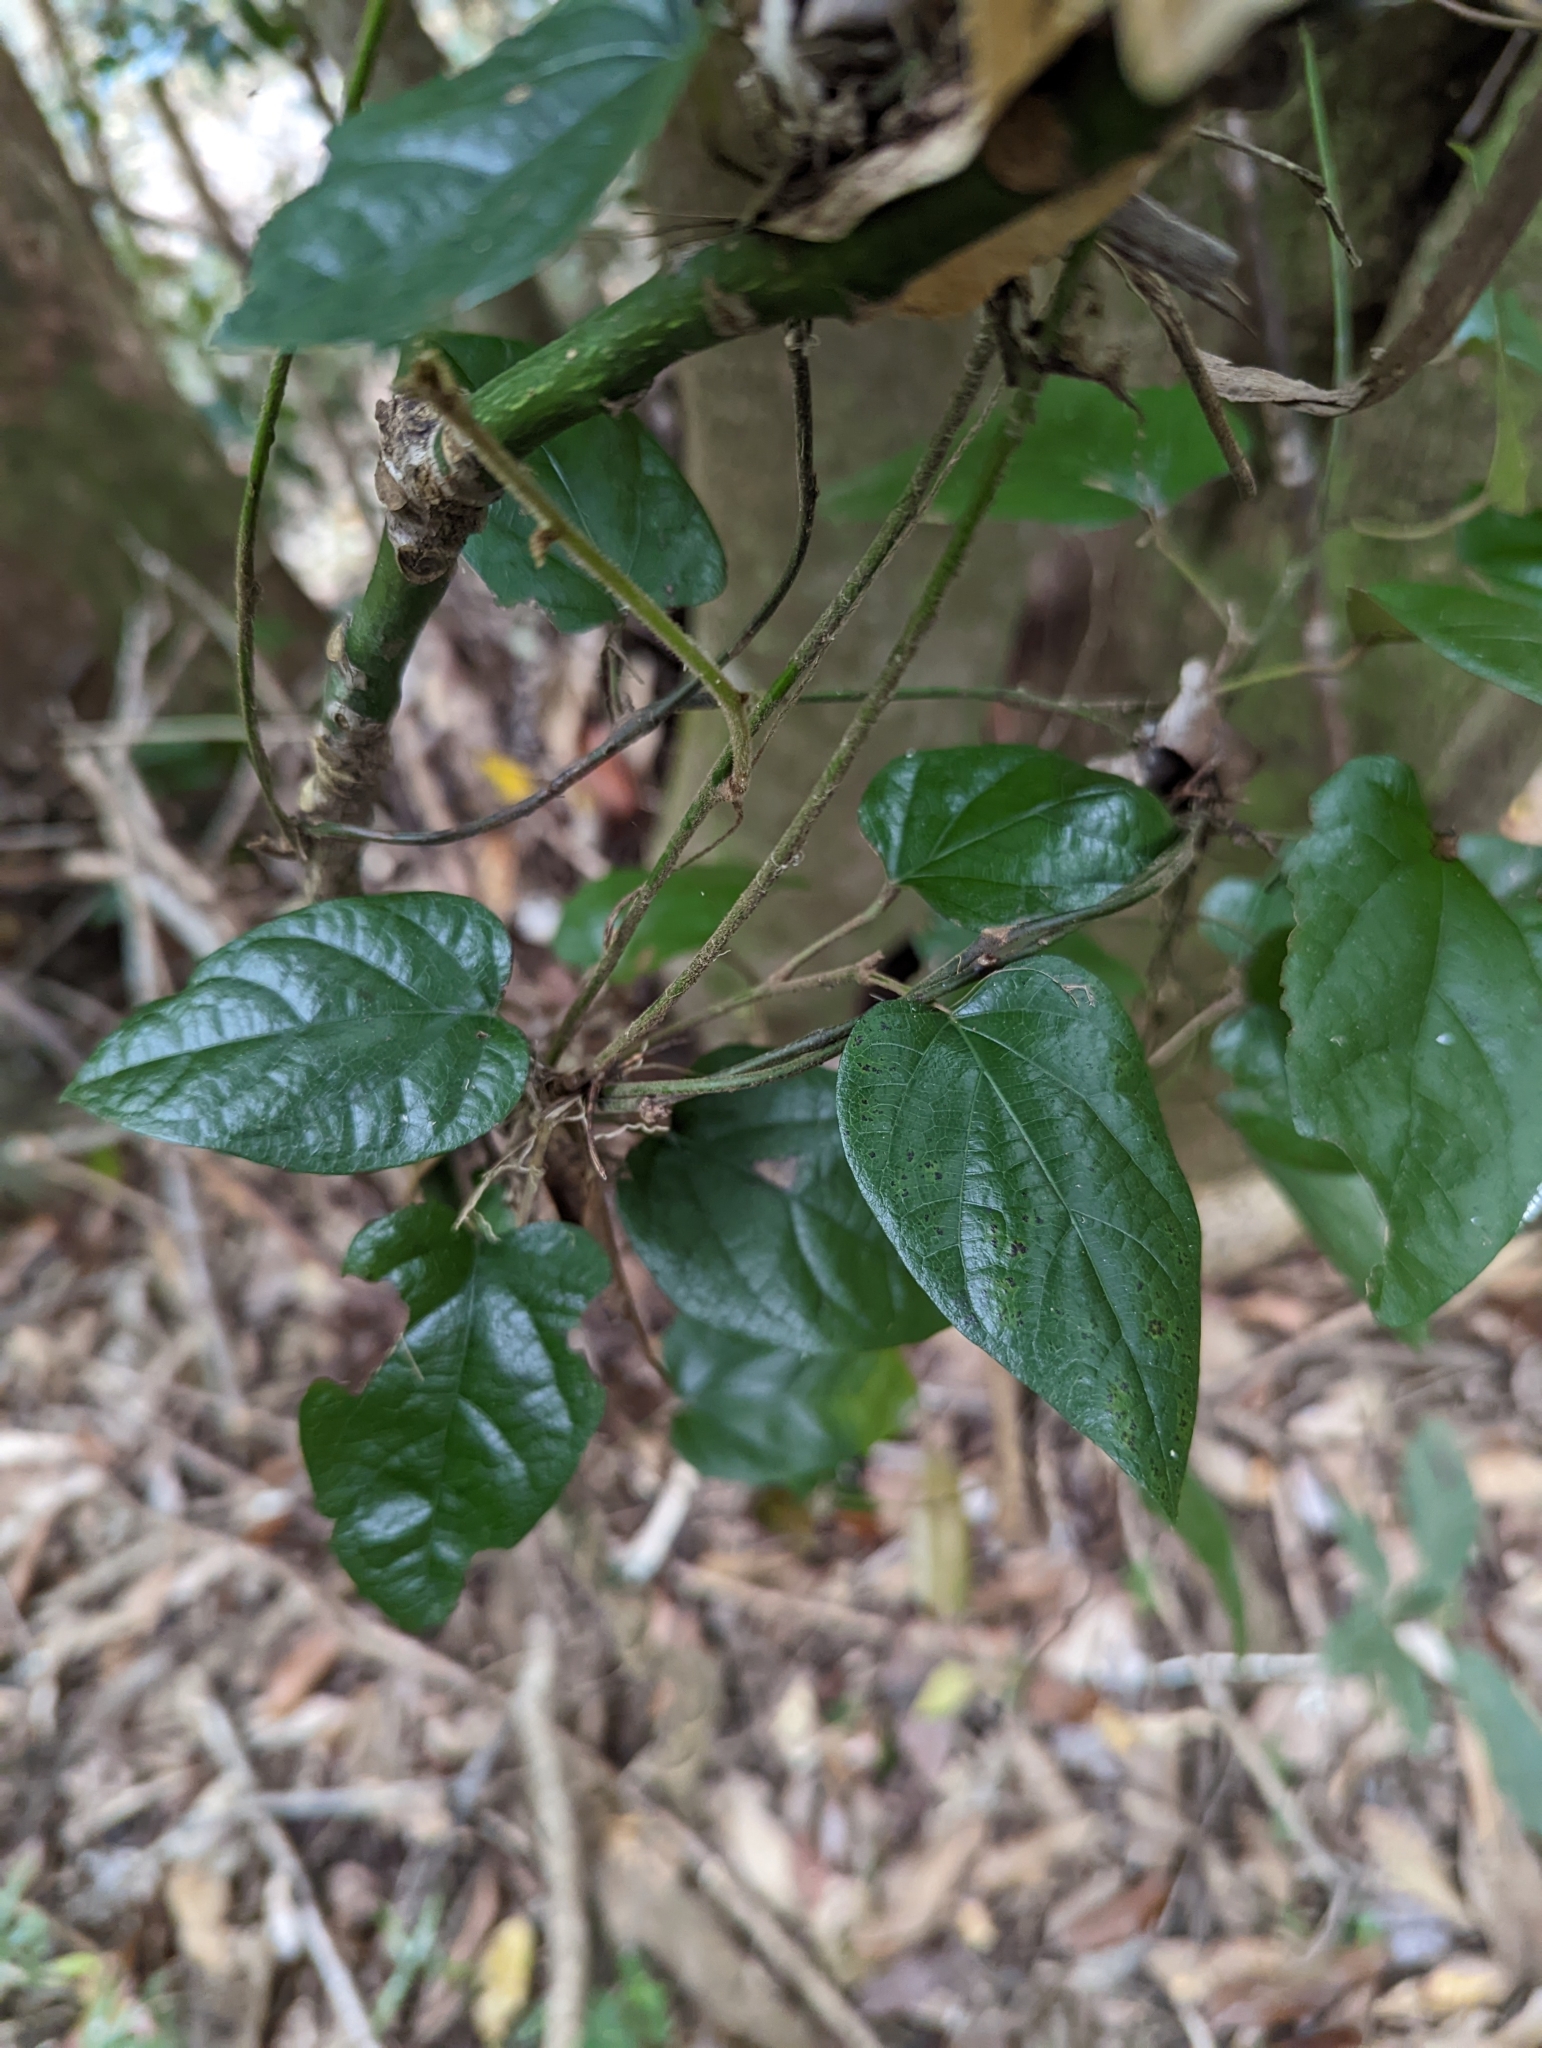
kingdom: Plantae
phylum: Tracheophyta
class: Magnoliopsida
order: Ranunculales
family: Menispermaceae
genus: Pleogyne
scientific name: Pleogyne australis
